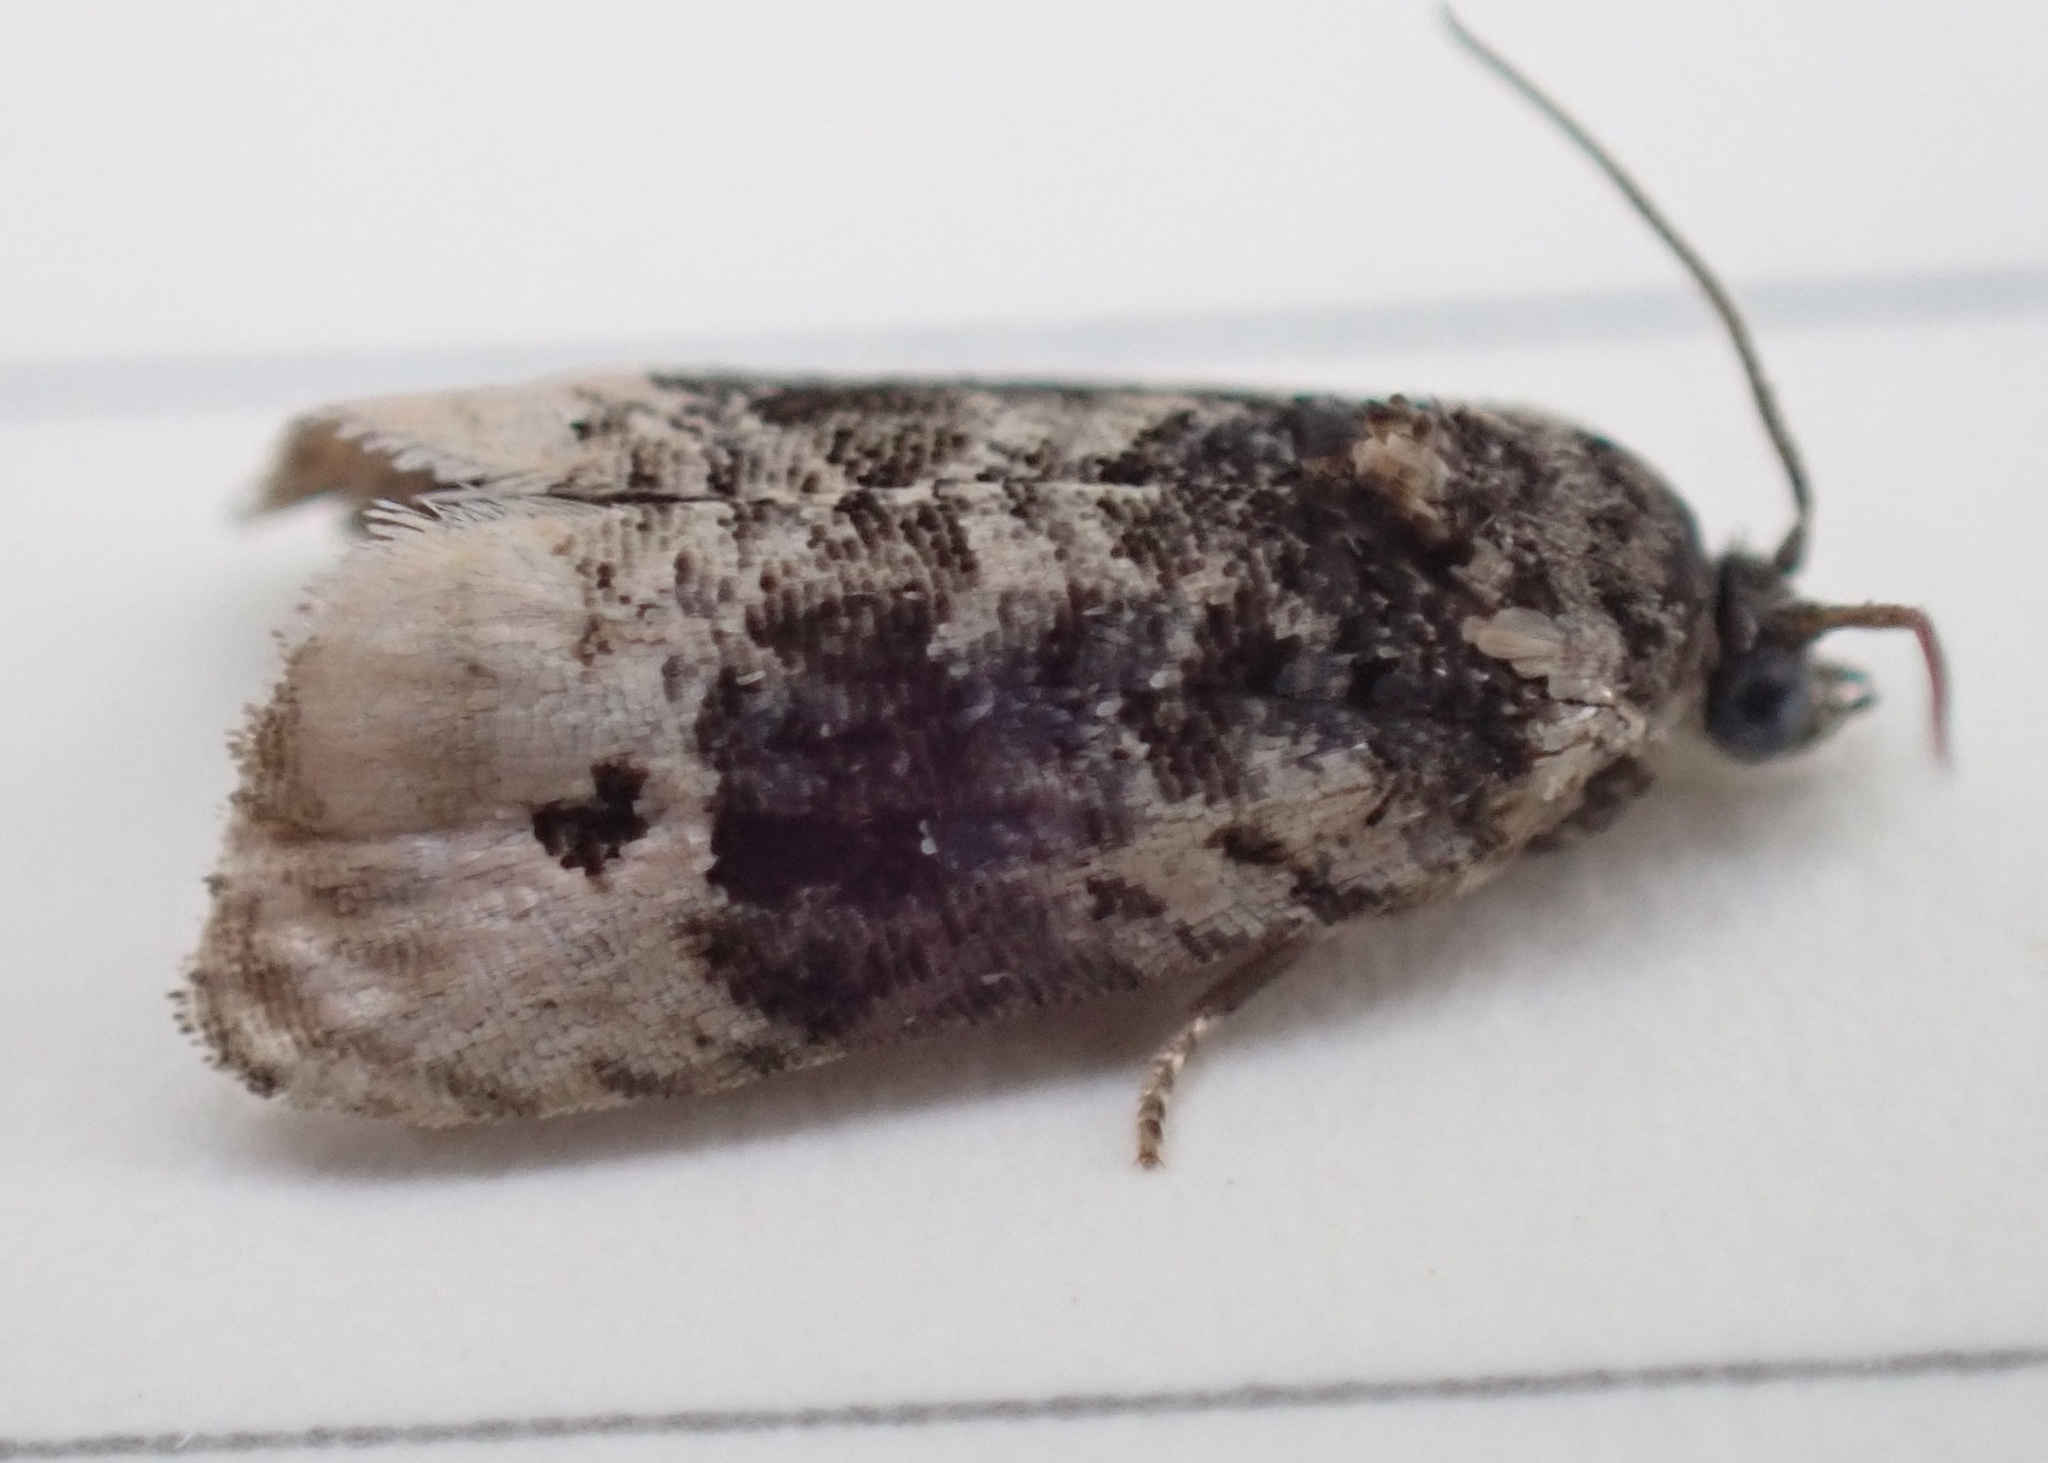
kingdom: Animalia
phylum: Arthropoda
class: Insecta
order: Lepidoptera
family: Tortricidae
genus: Hedya
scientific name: Hedya separatana
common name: Pink-washed leafroller moth
